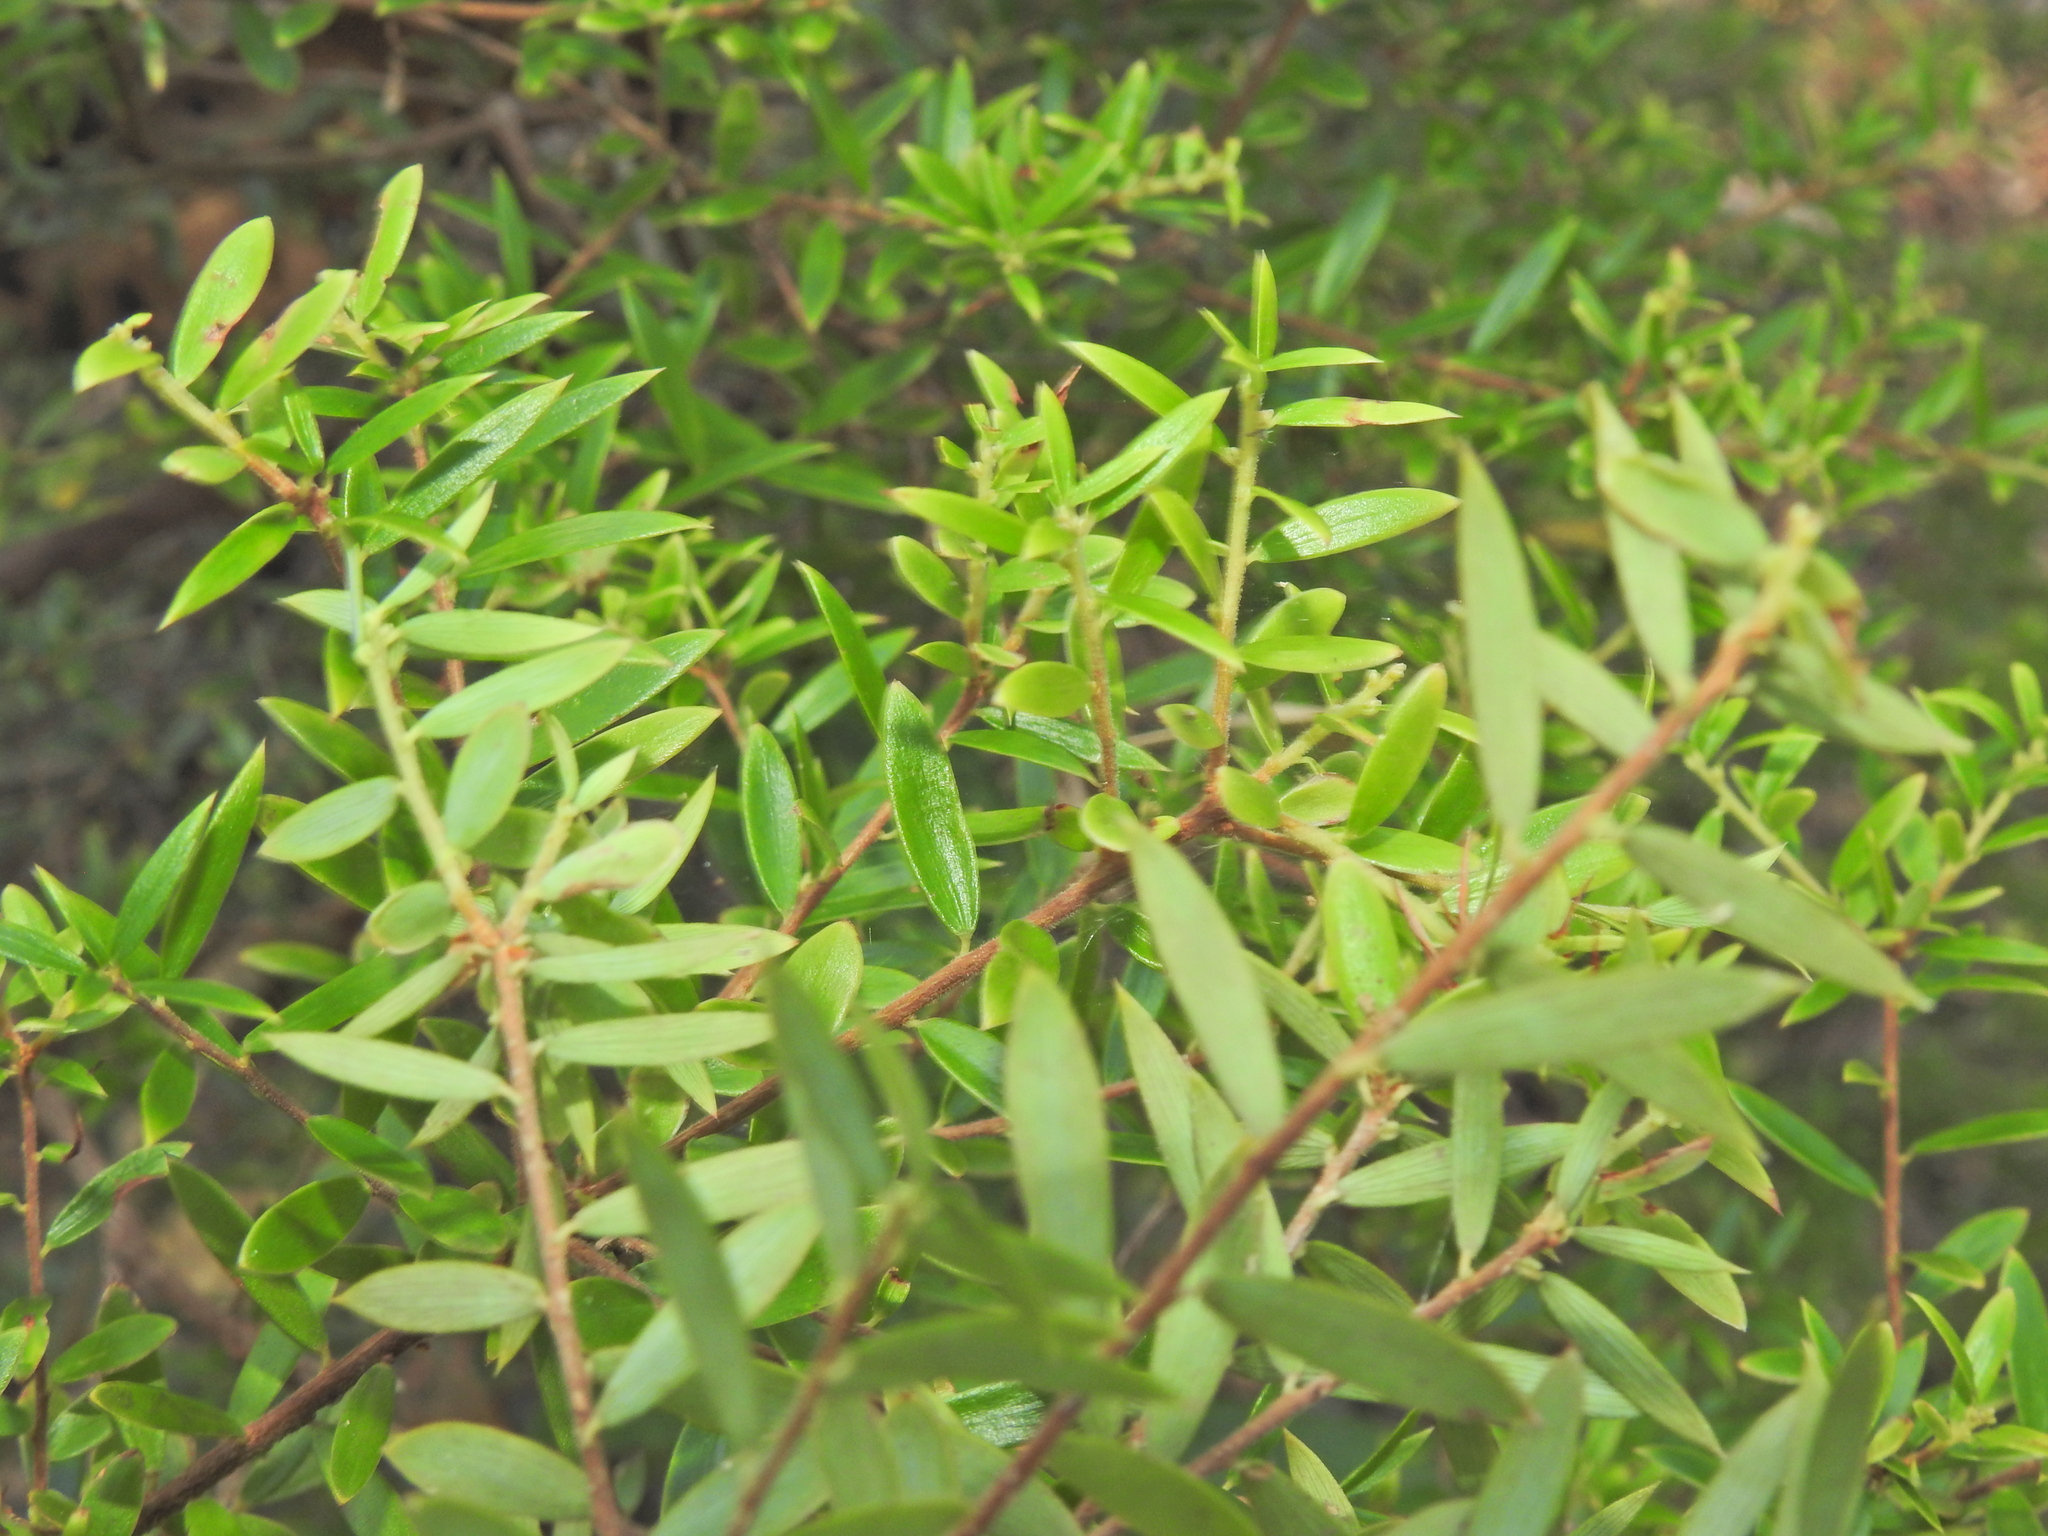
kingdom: Plantae
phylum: Tracheophyta
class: Magnoliopsida
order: Ericales
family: Ericaceae
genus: Acrotriche
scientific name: Acrotriche aggregata
